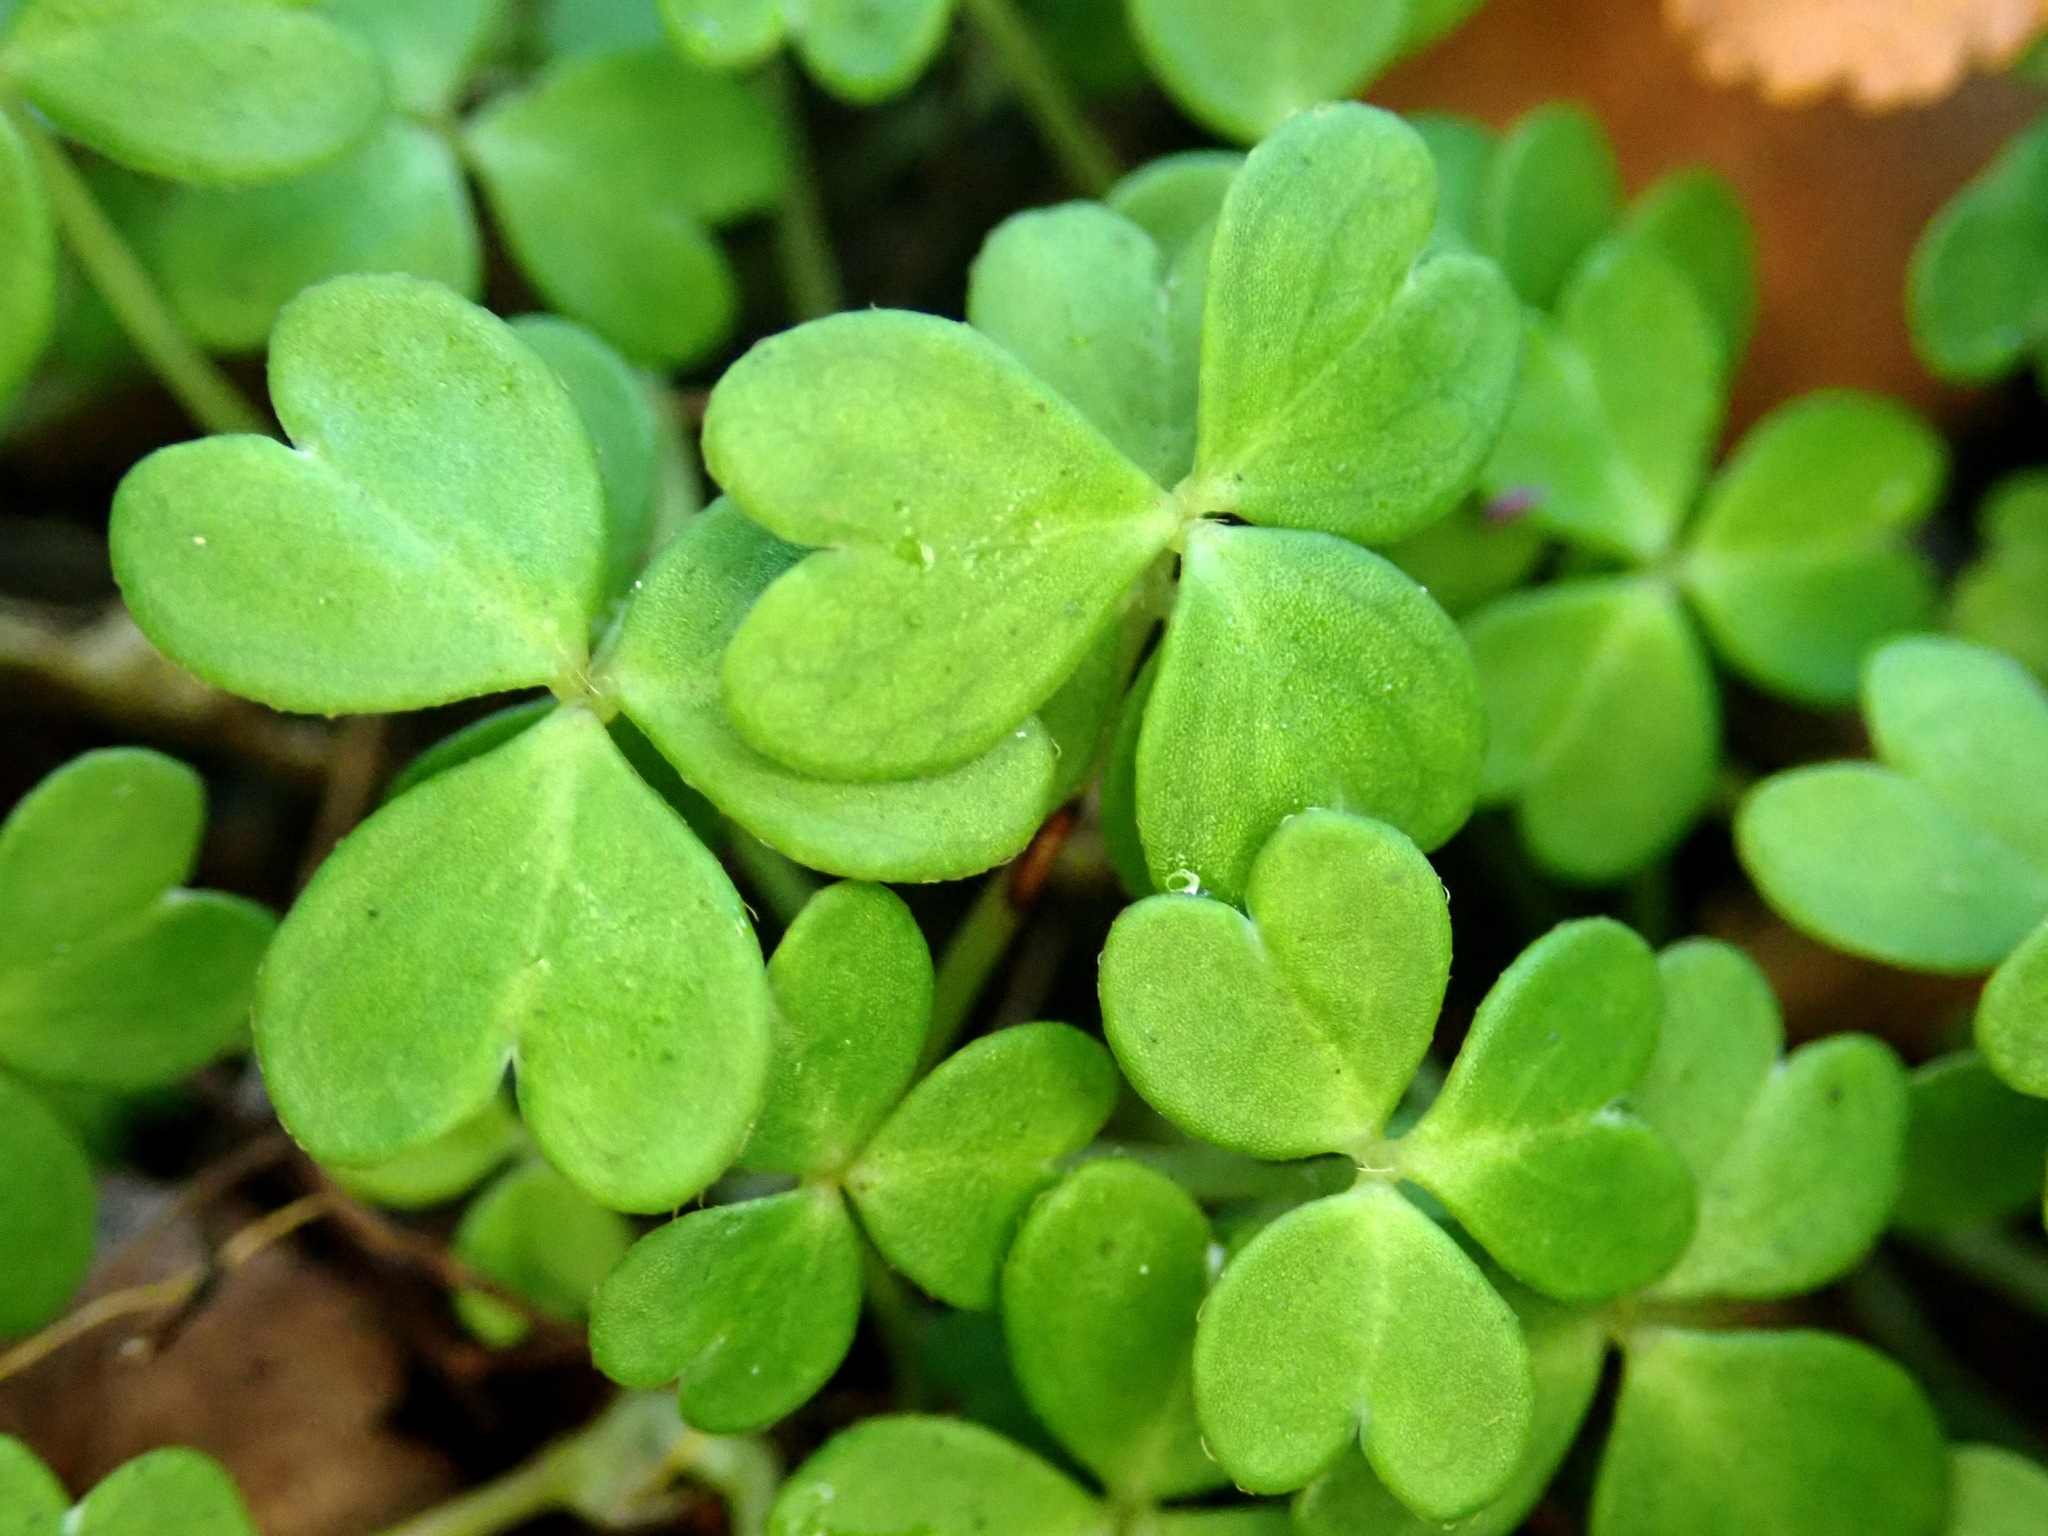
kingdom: Plantae
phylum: Tracheophyta
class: Magnoliopsida
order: Oxalidales
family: Oxalidaceae
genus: Oxalis
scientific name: Oxalis magellanica
